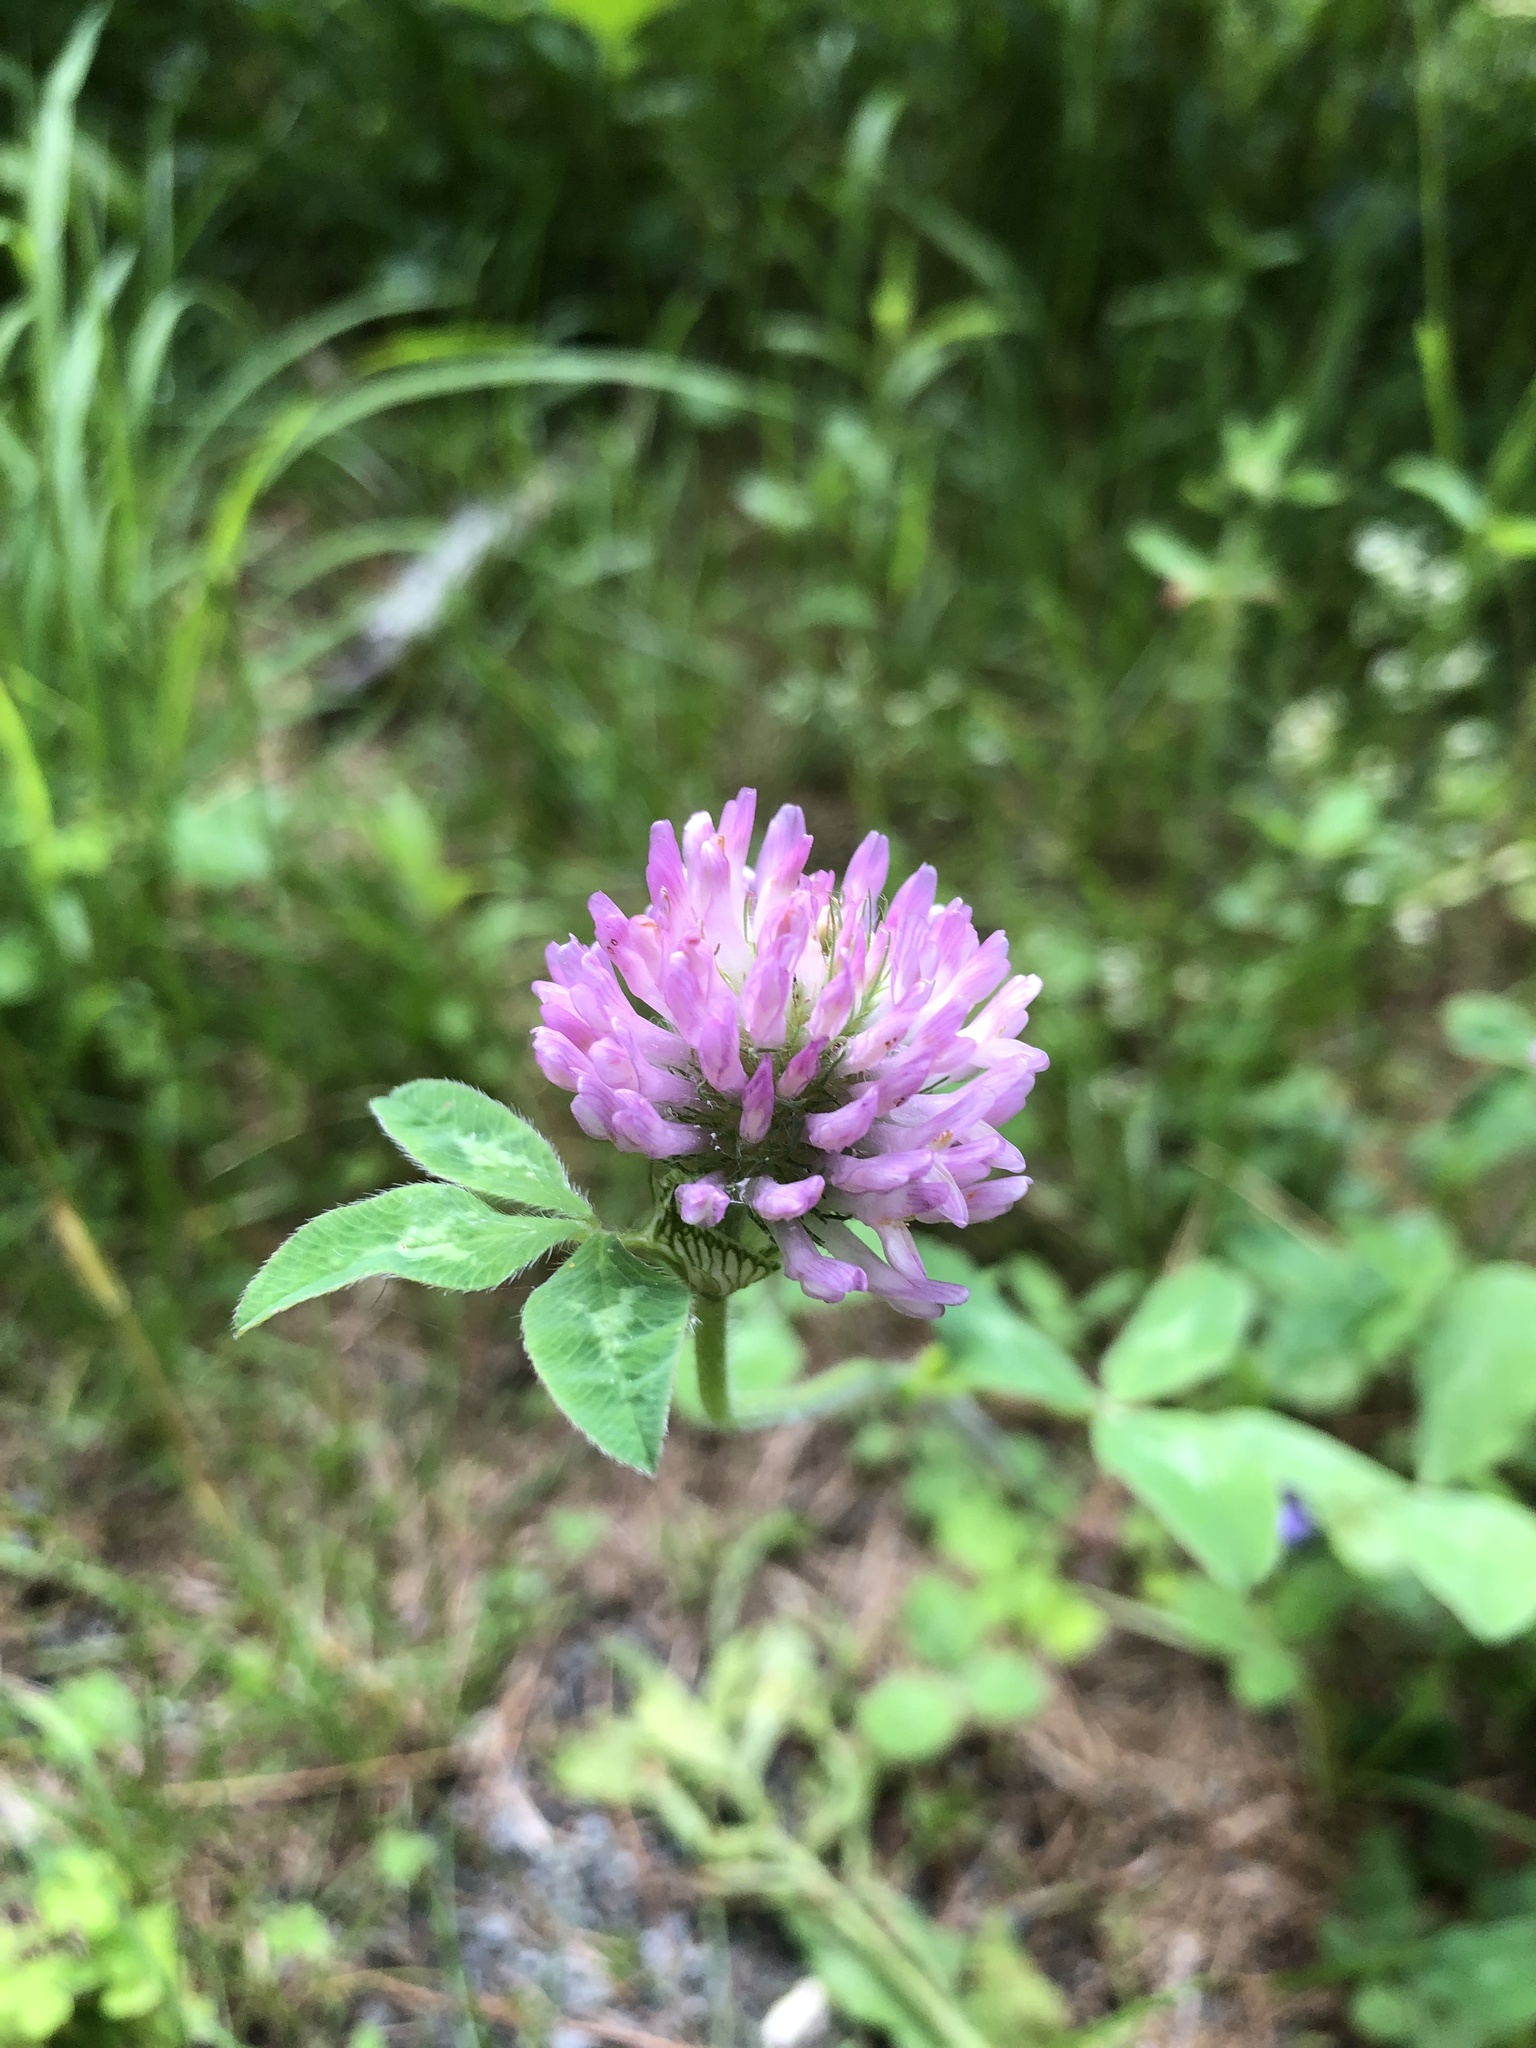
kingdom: Plantae
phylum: Tracheophyta
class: Magnoliopsida
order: Fabales
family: Fabaceae
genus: Trifolium
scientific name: Trifolium pratense
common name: Red clover
